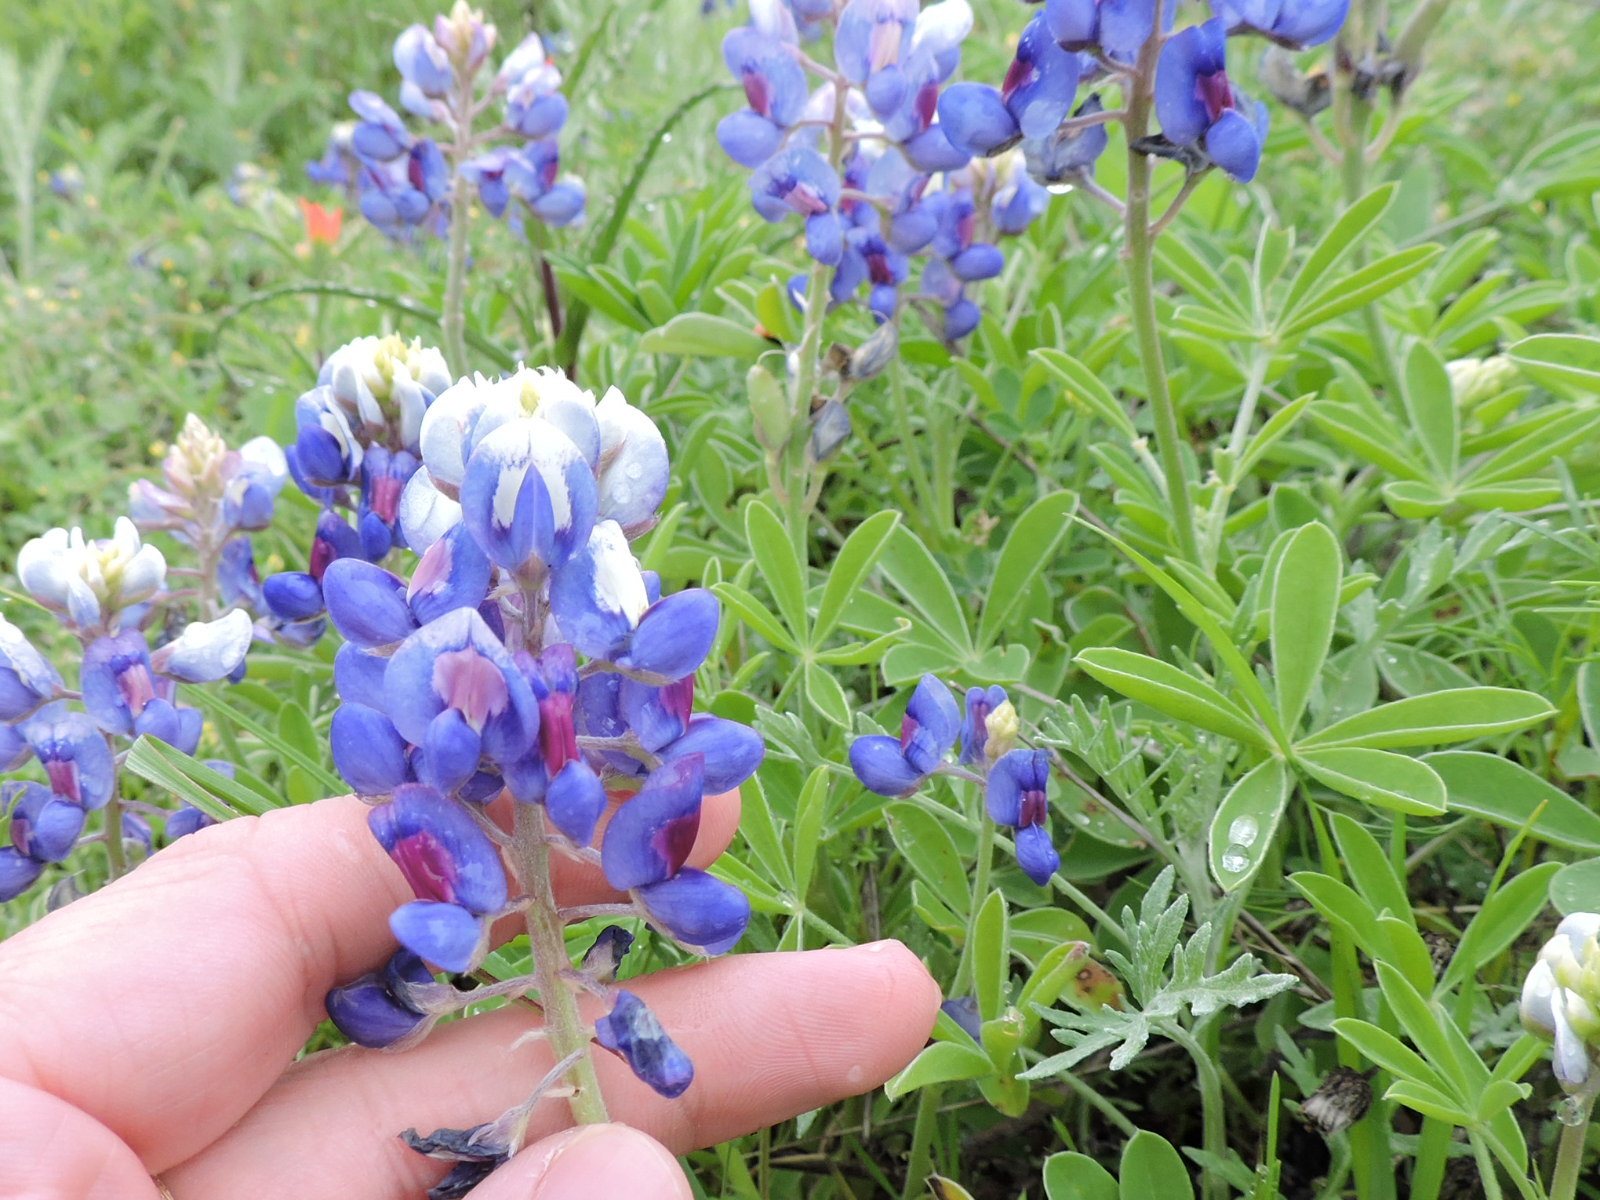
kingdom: Plantae
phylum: Tracheophyta
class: Magnoliopsida
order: Fabales
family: Fabaceae
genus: Lupinus
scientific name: Lupinus texensis
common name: Texas bluebonnet
